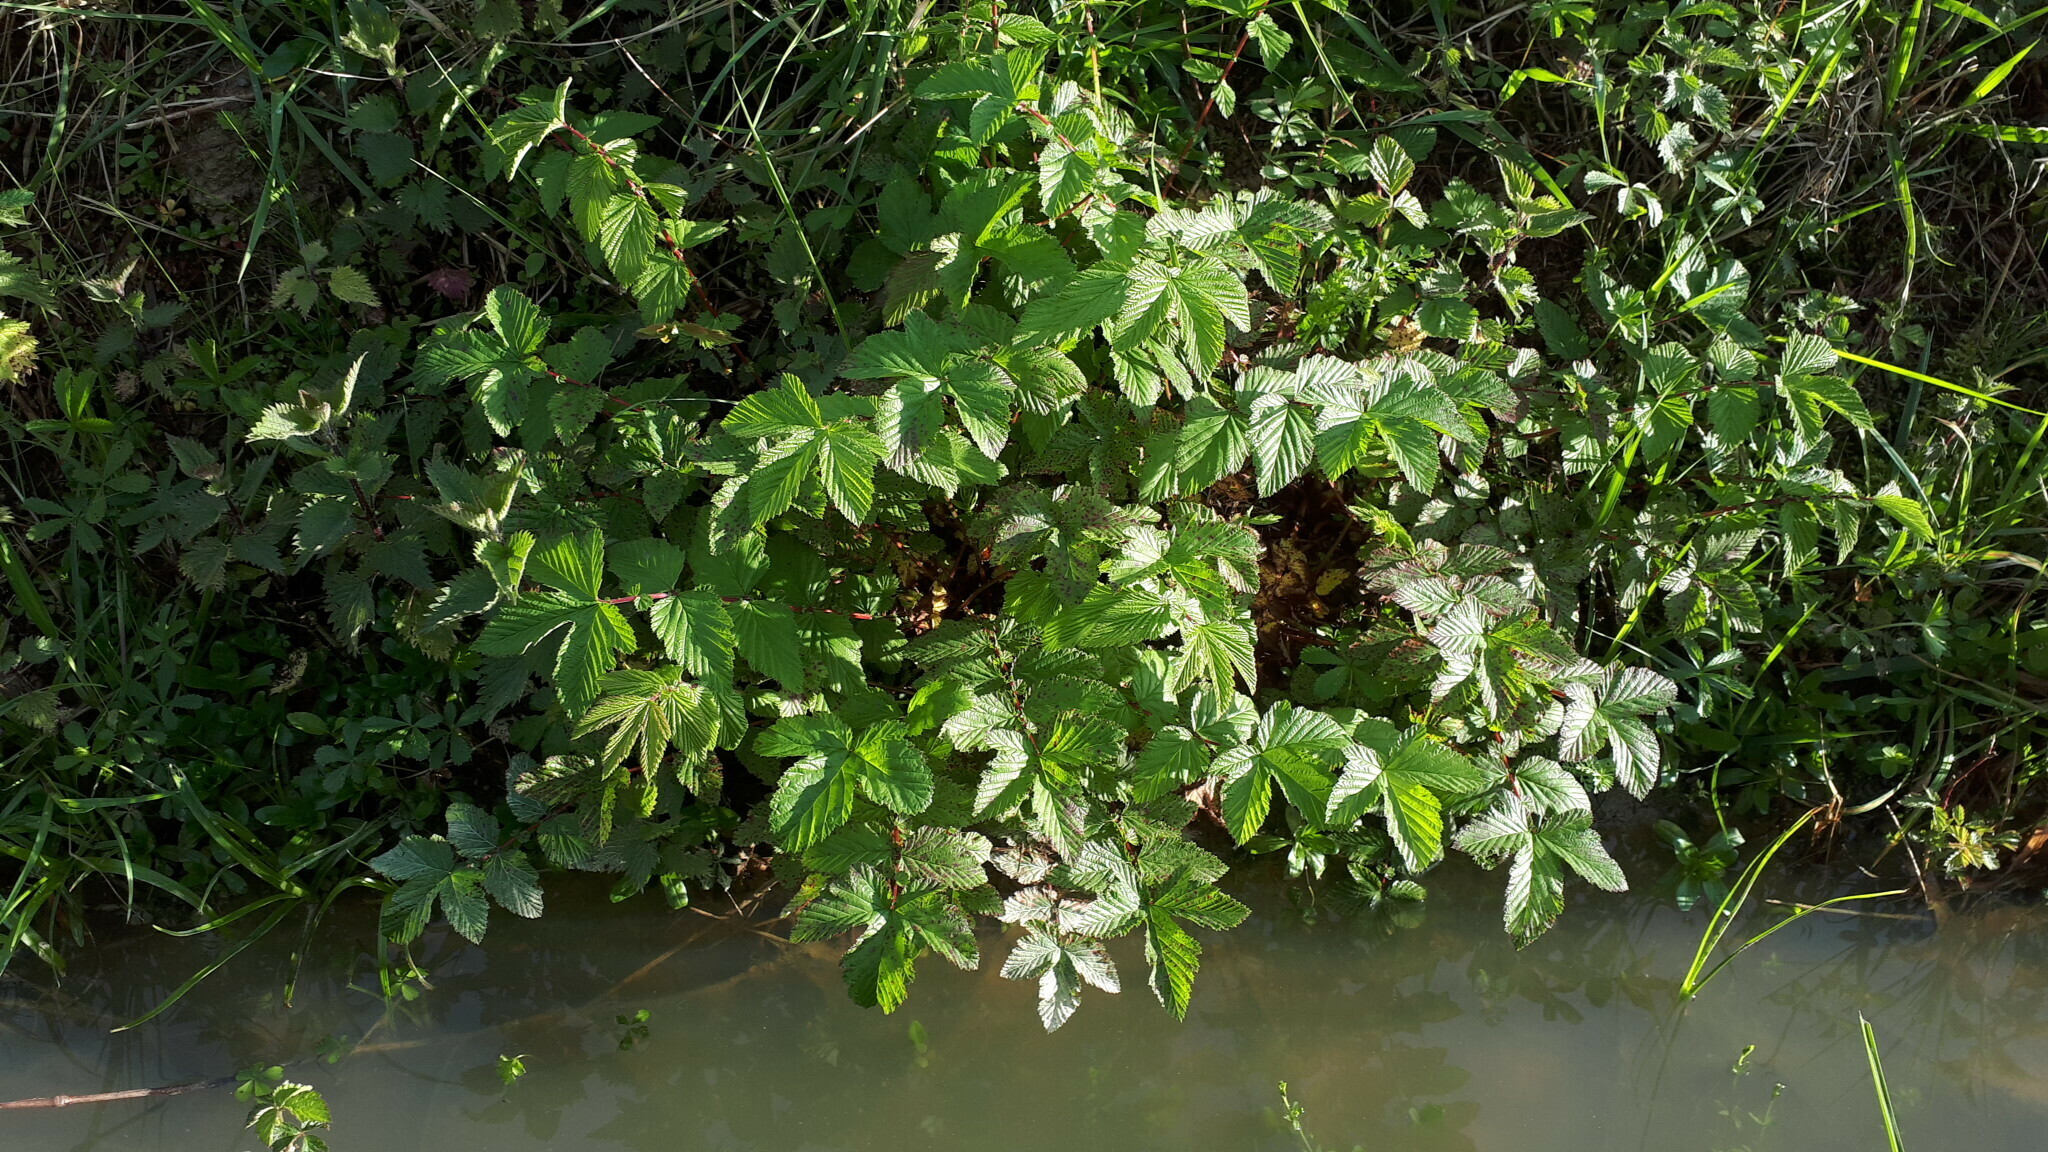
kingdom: Plantae
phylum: Tracheophyta
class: Magnoliopsida
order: Rosales
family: Rosaceae
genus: Filipendula
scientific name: Filipendula ulmaria
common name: Meadowsweet
